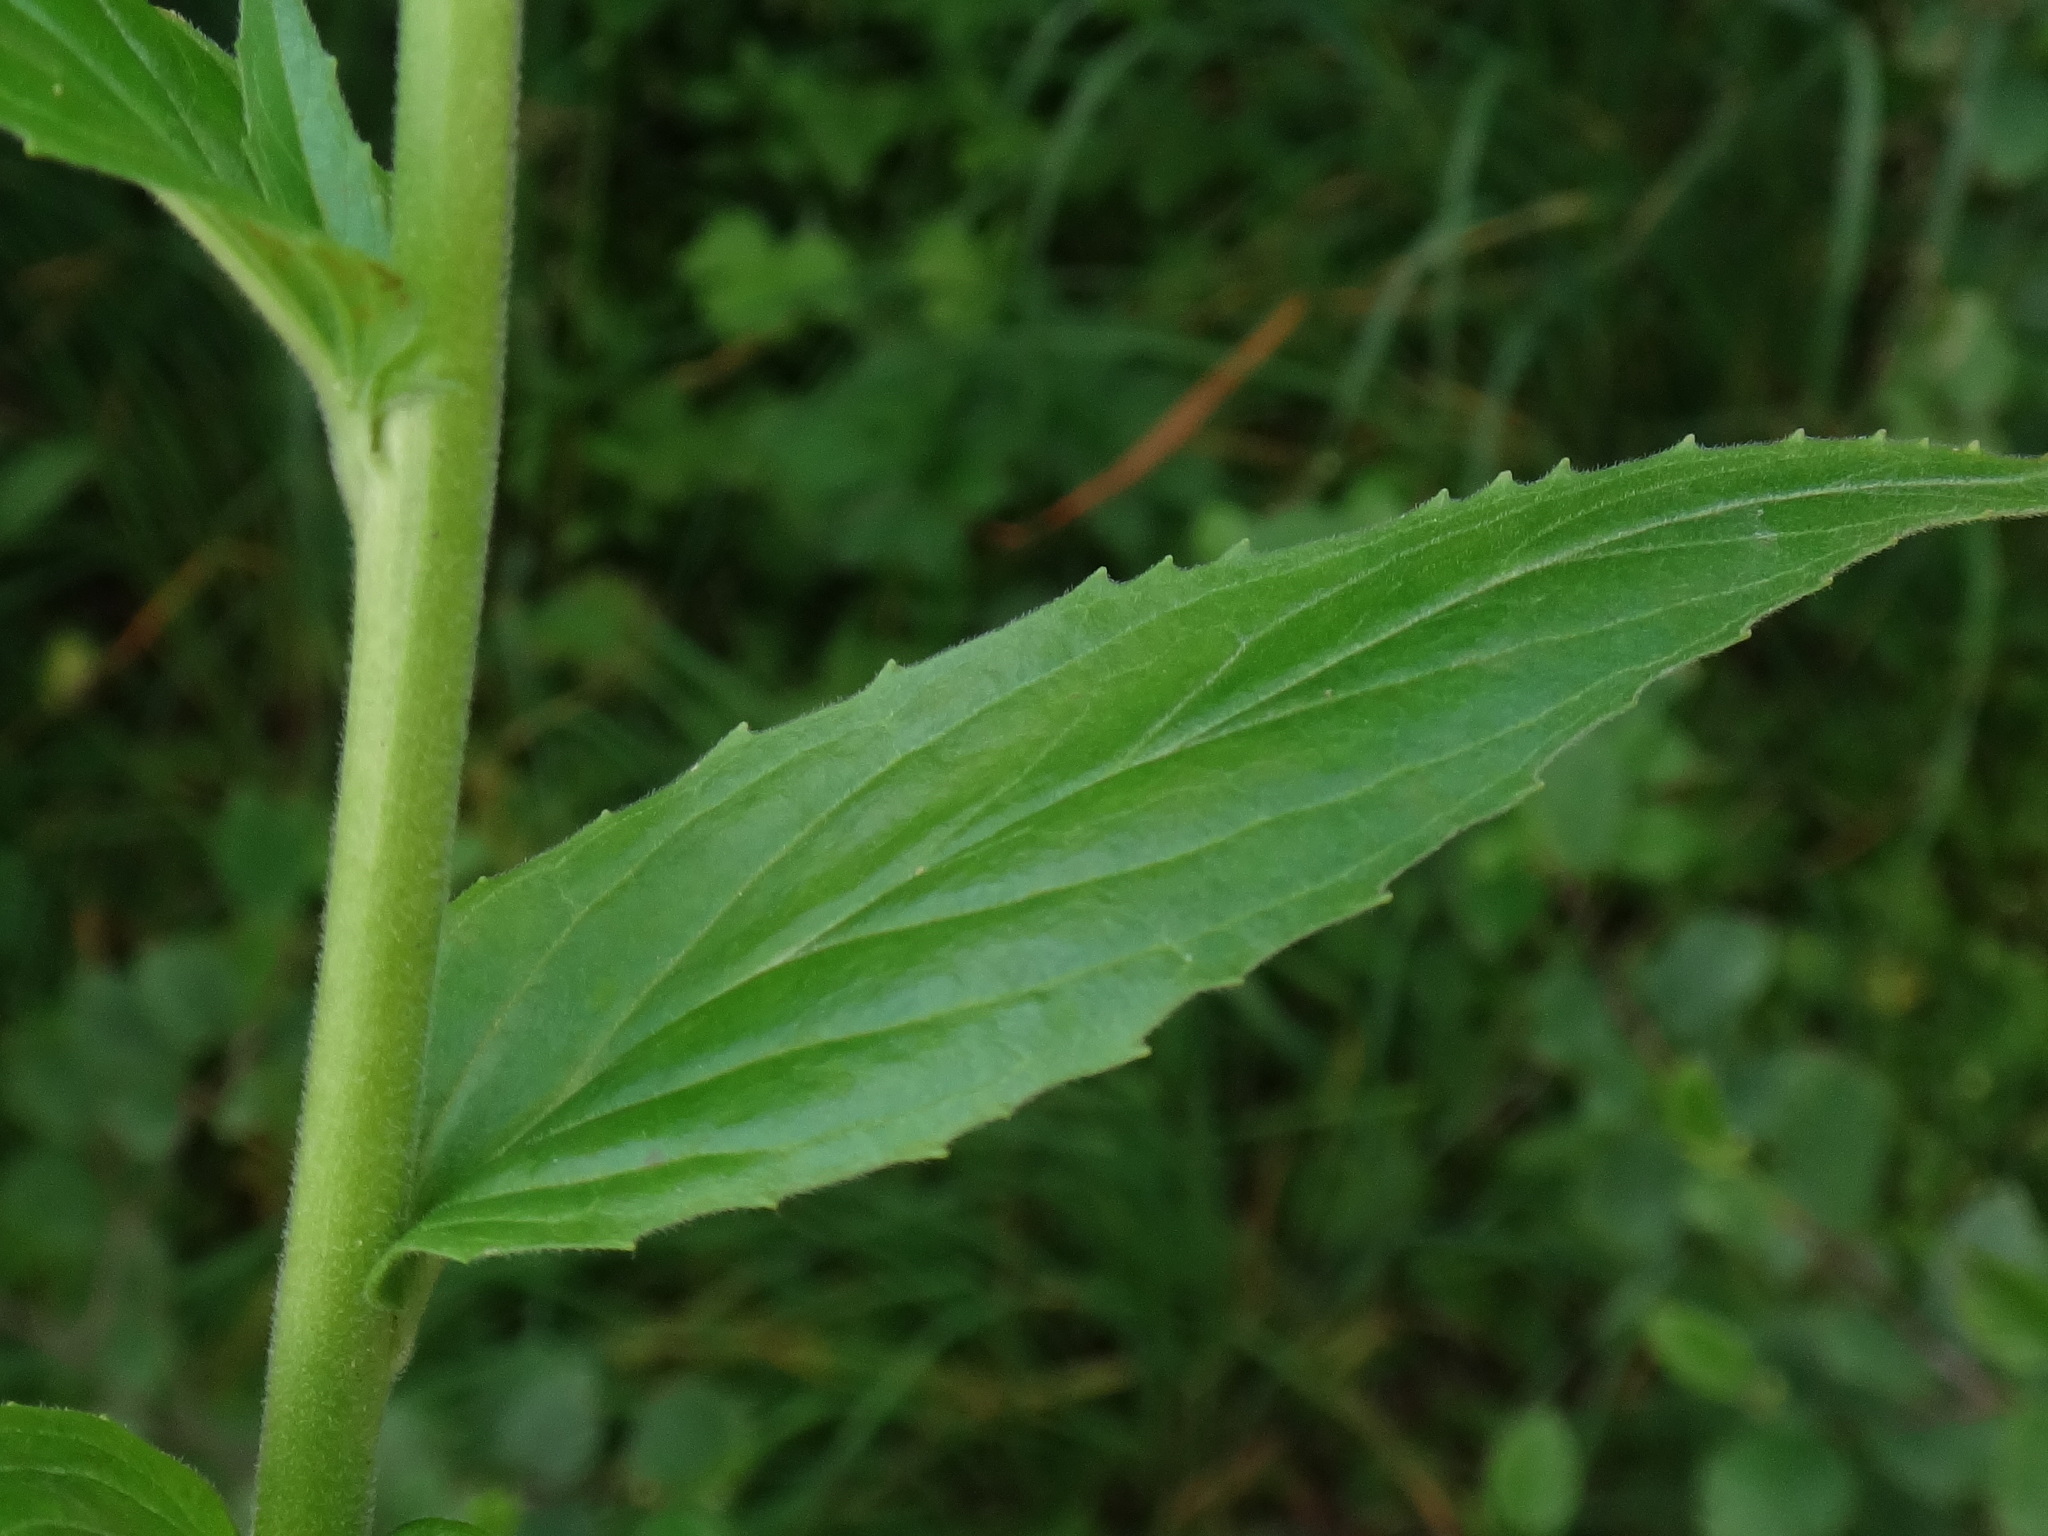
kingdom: Plantae
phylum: Tracheophyta
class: Magnoliopsida
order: Myrtales
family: Onagraceae
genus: Epilobium
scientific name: Epilobium montanum
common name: Broad-leaved willowherb
